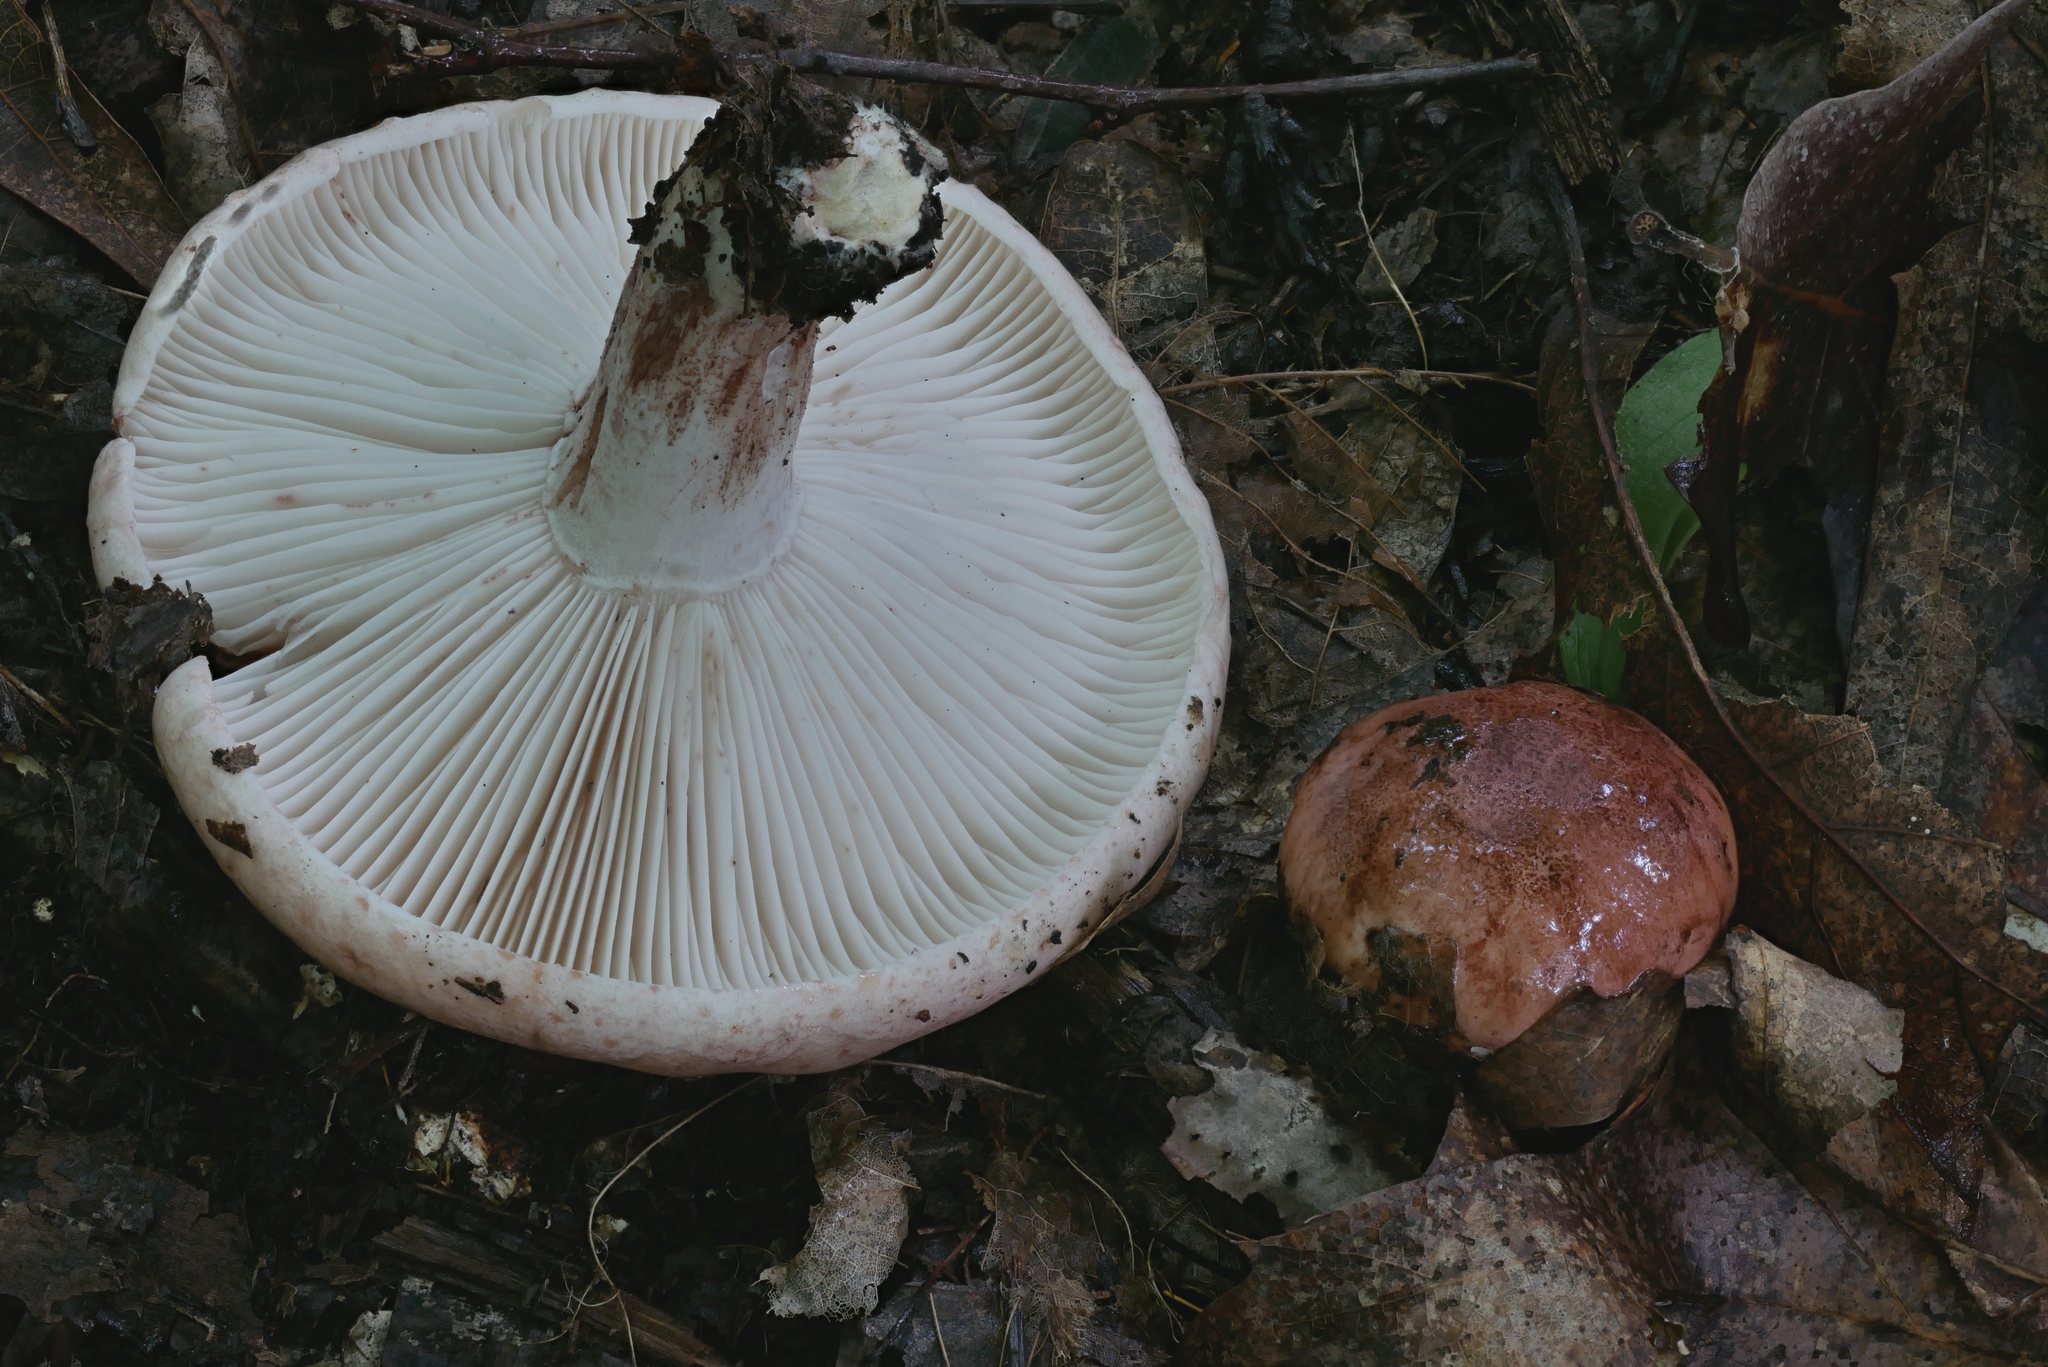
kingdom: Fungi
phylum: Basidiomycota
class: Agaricomycetes
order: Agaricales
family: Hygrophoraceae
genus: Hygrophorus
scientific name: Hygrophorus russula
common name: Pinkmottle woodwax
